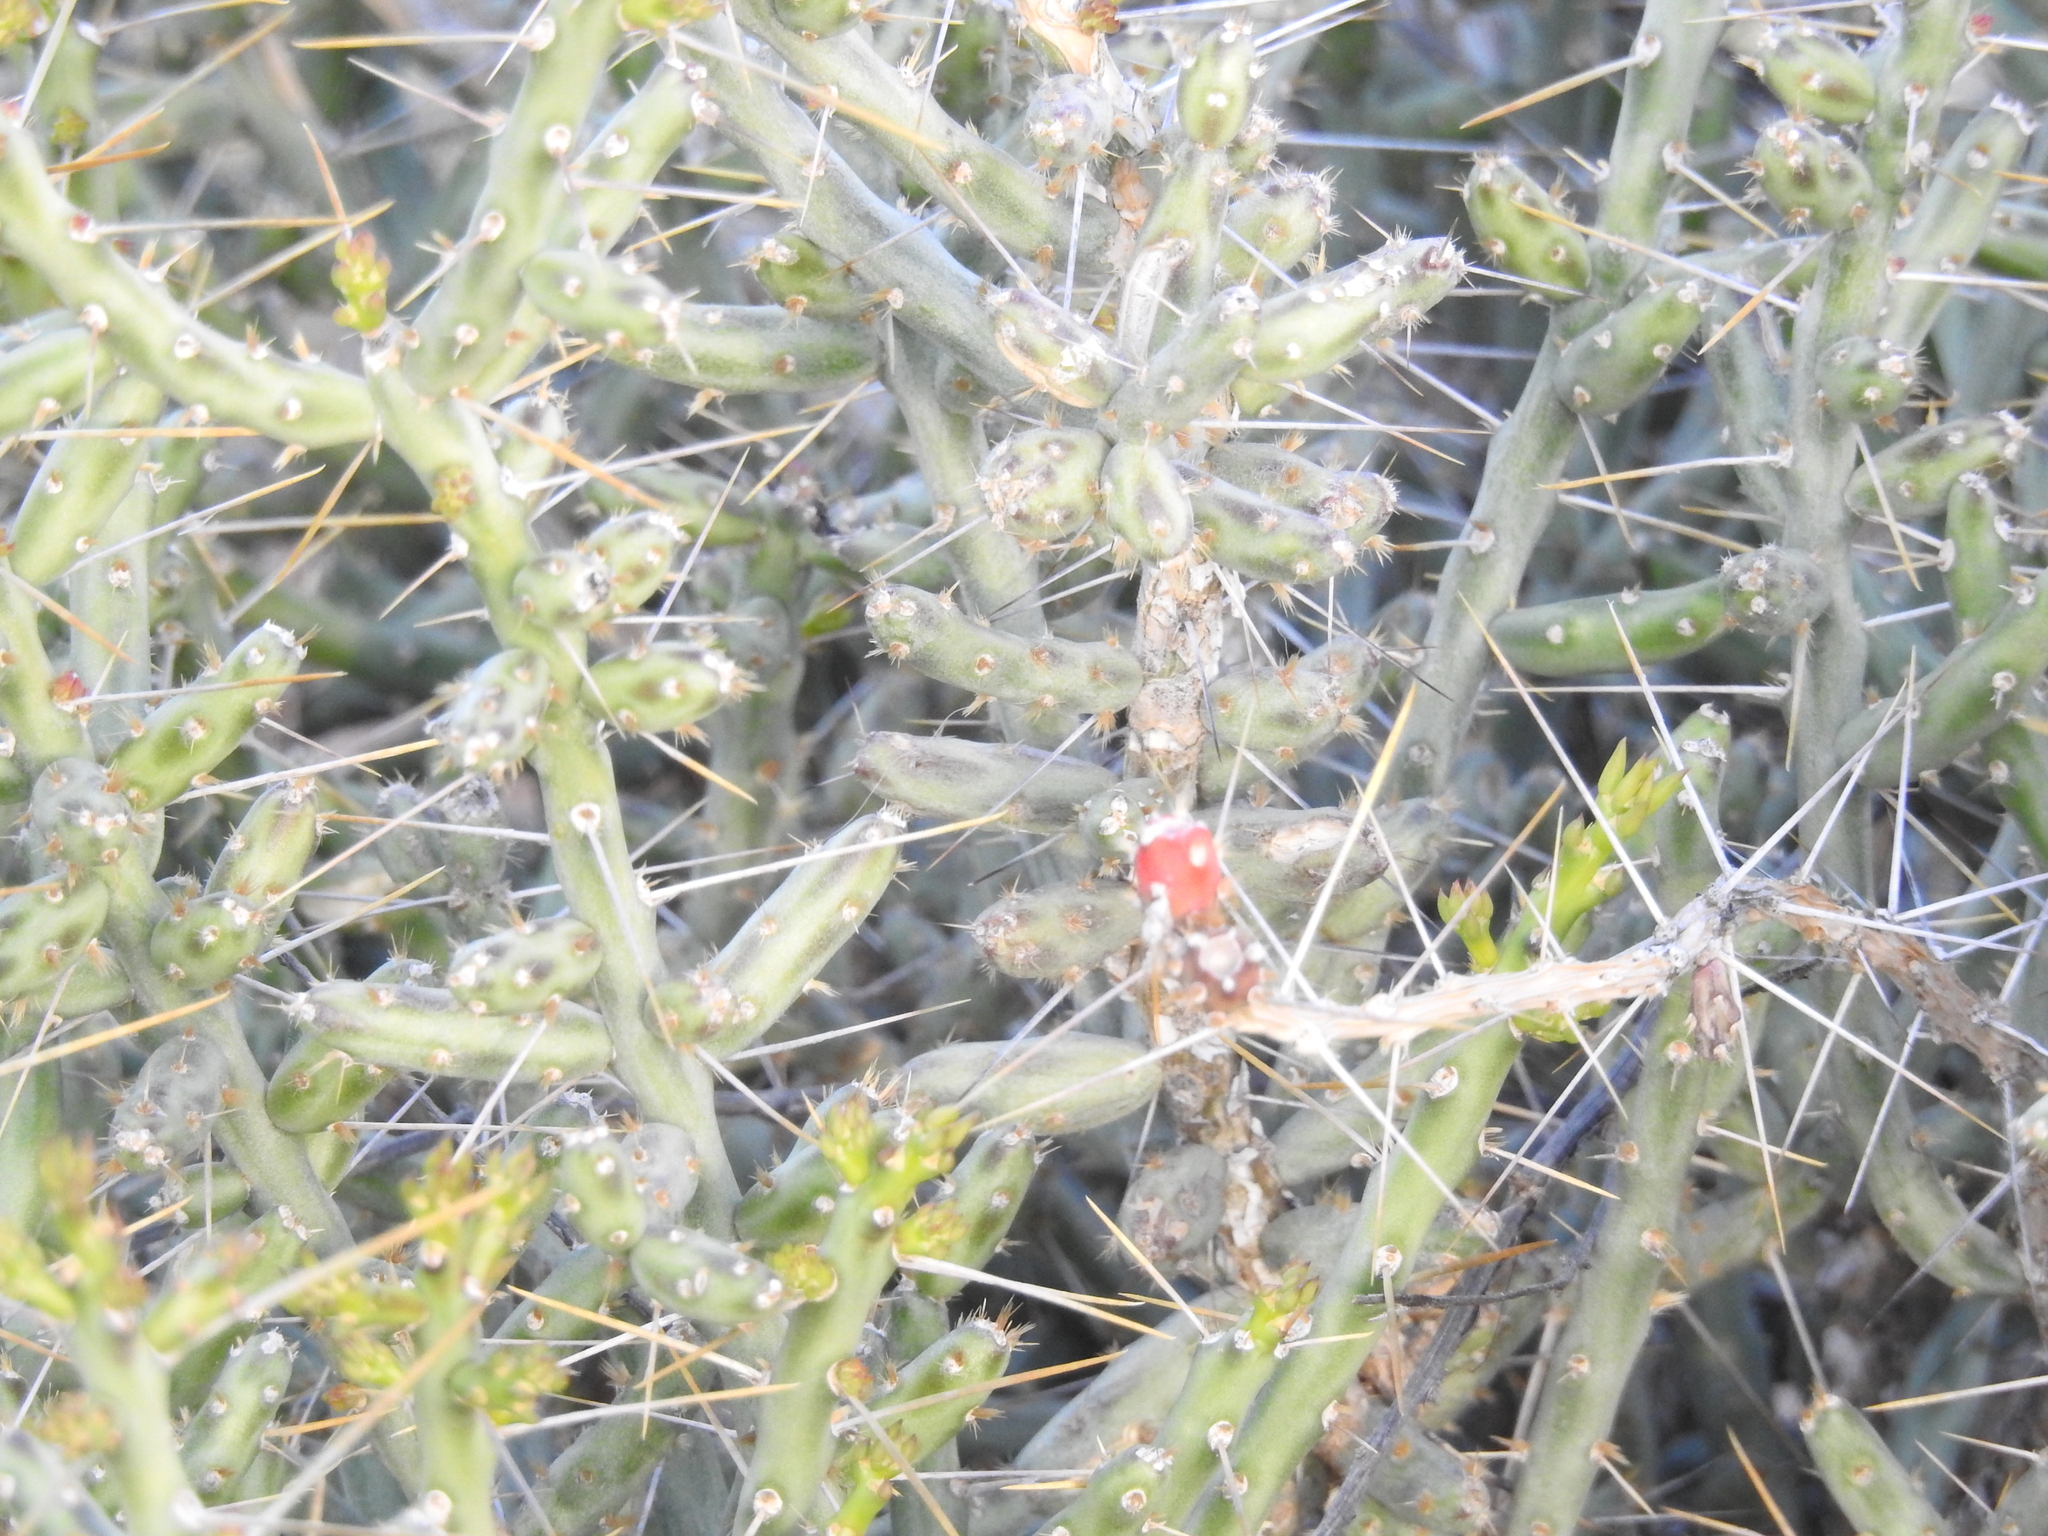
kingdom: Plantae
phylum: Tracheophyta
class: Magnoliopsida
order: Caryophyllales
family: Cactaceae
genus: Cylindropuntia
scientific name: Cylindropuntia leptocaulis
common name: Christmas cactus
